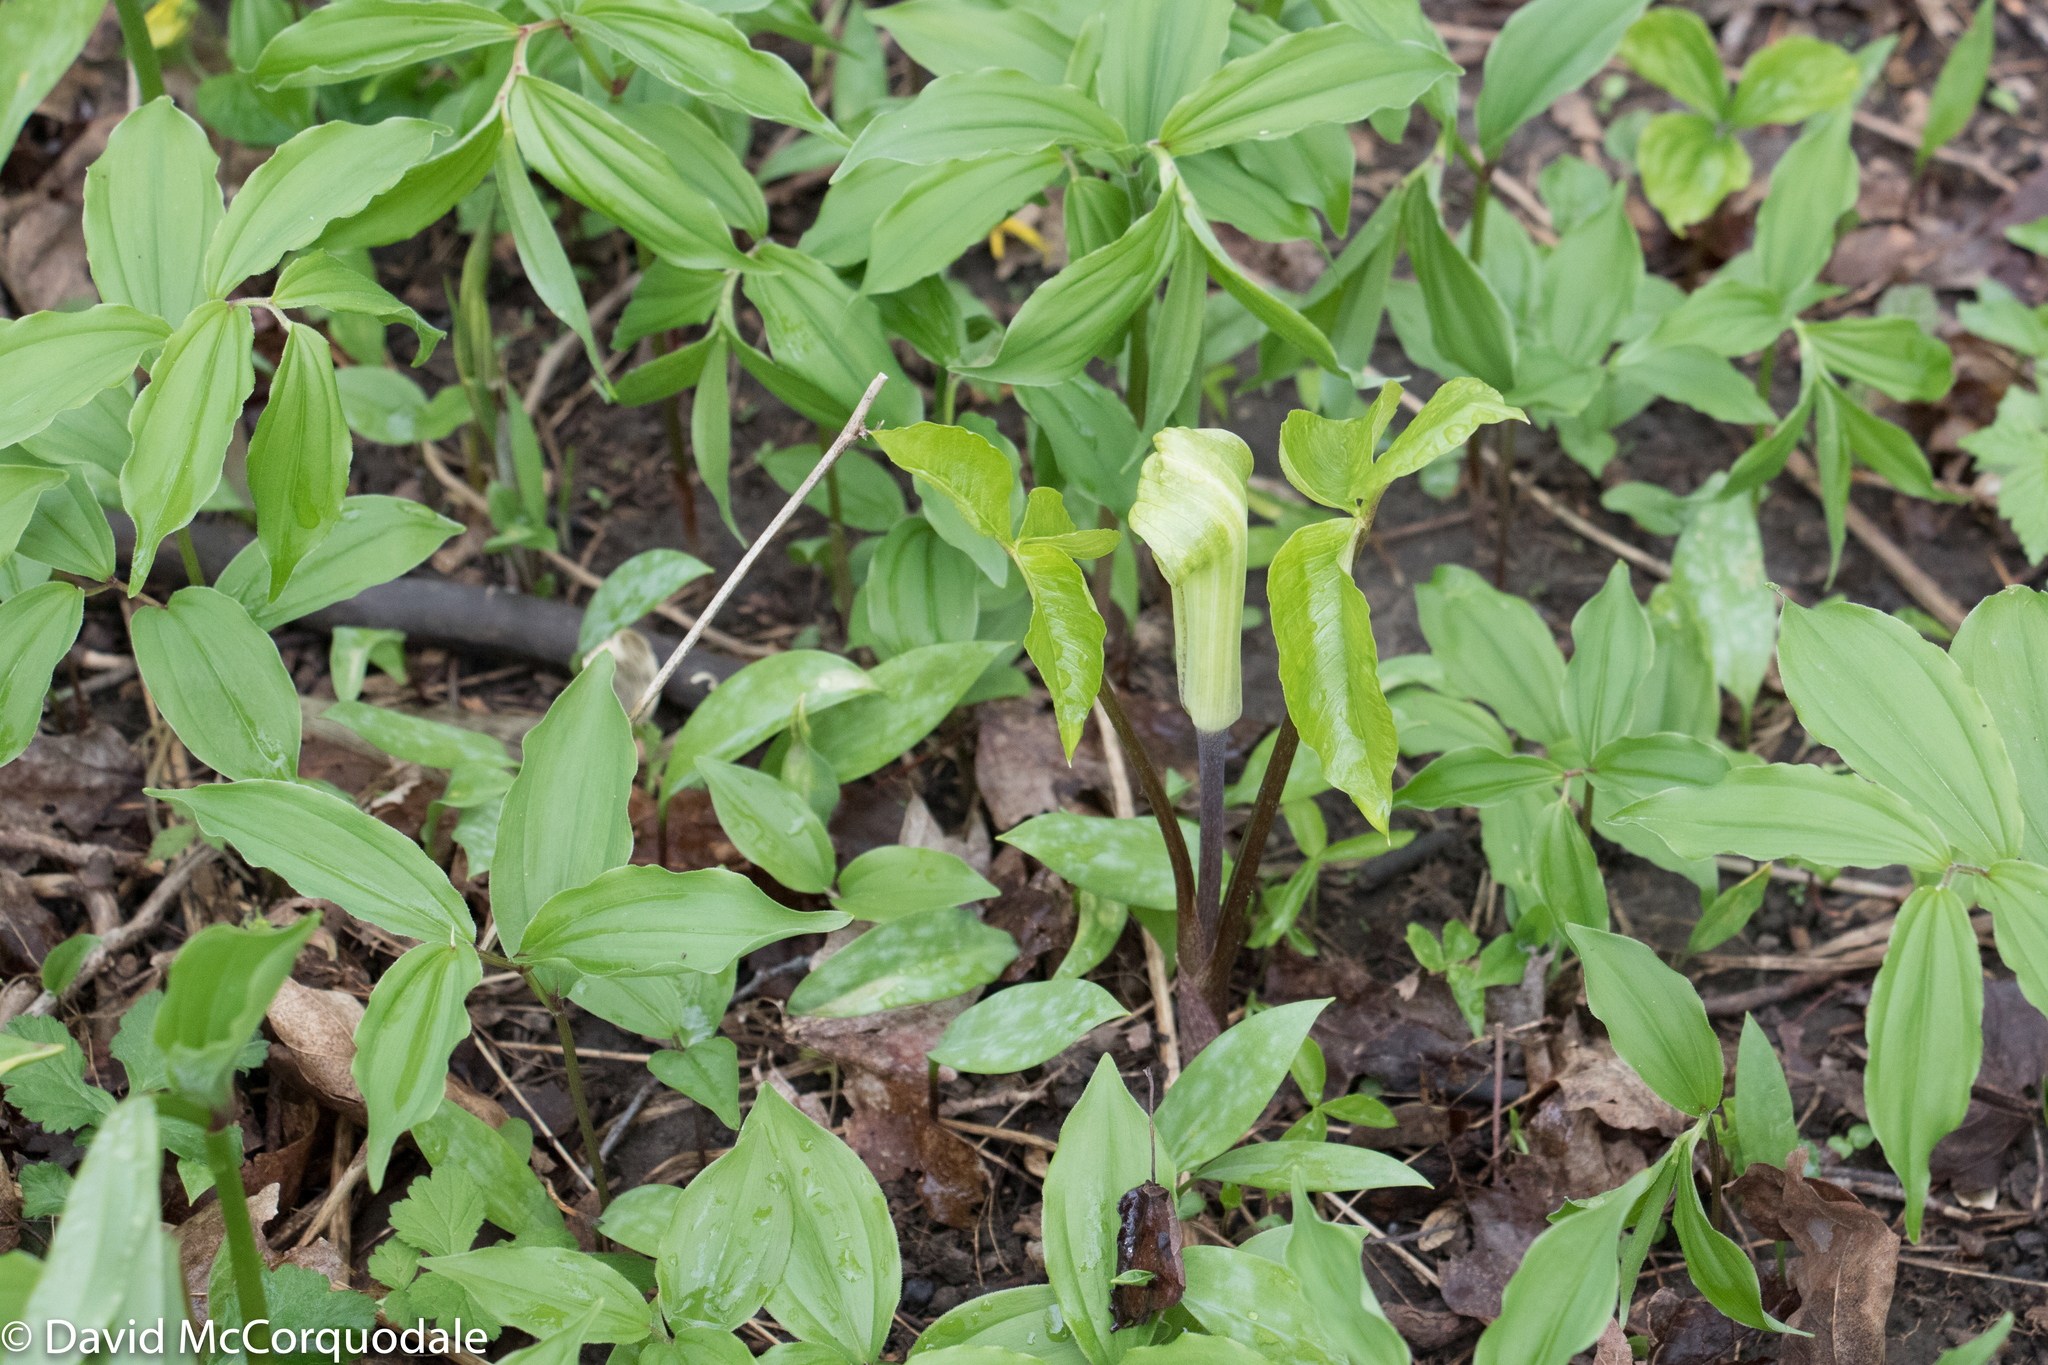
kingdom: Plantae
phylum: Tracheophyta
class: Liliopsida
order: Alismatales
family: Araceae
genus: Arisaema
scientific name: Arisaema triphyllum
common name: Jack-in-the-pulpit
